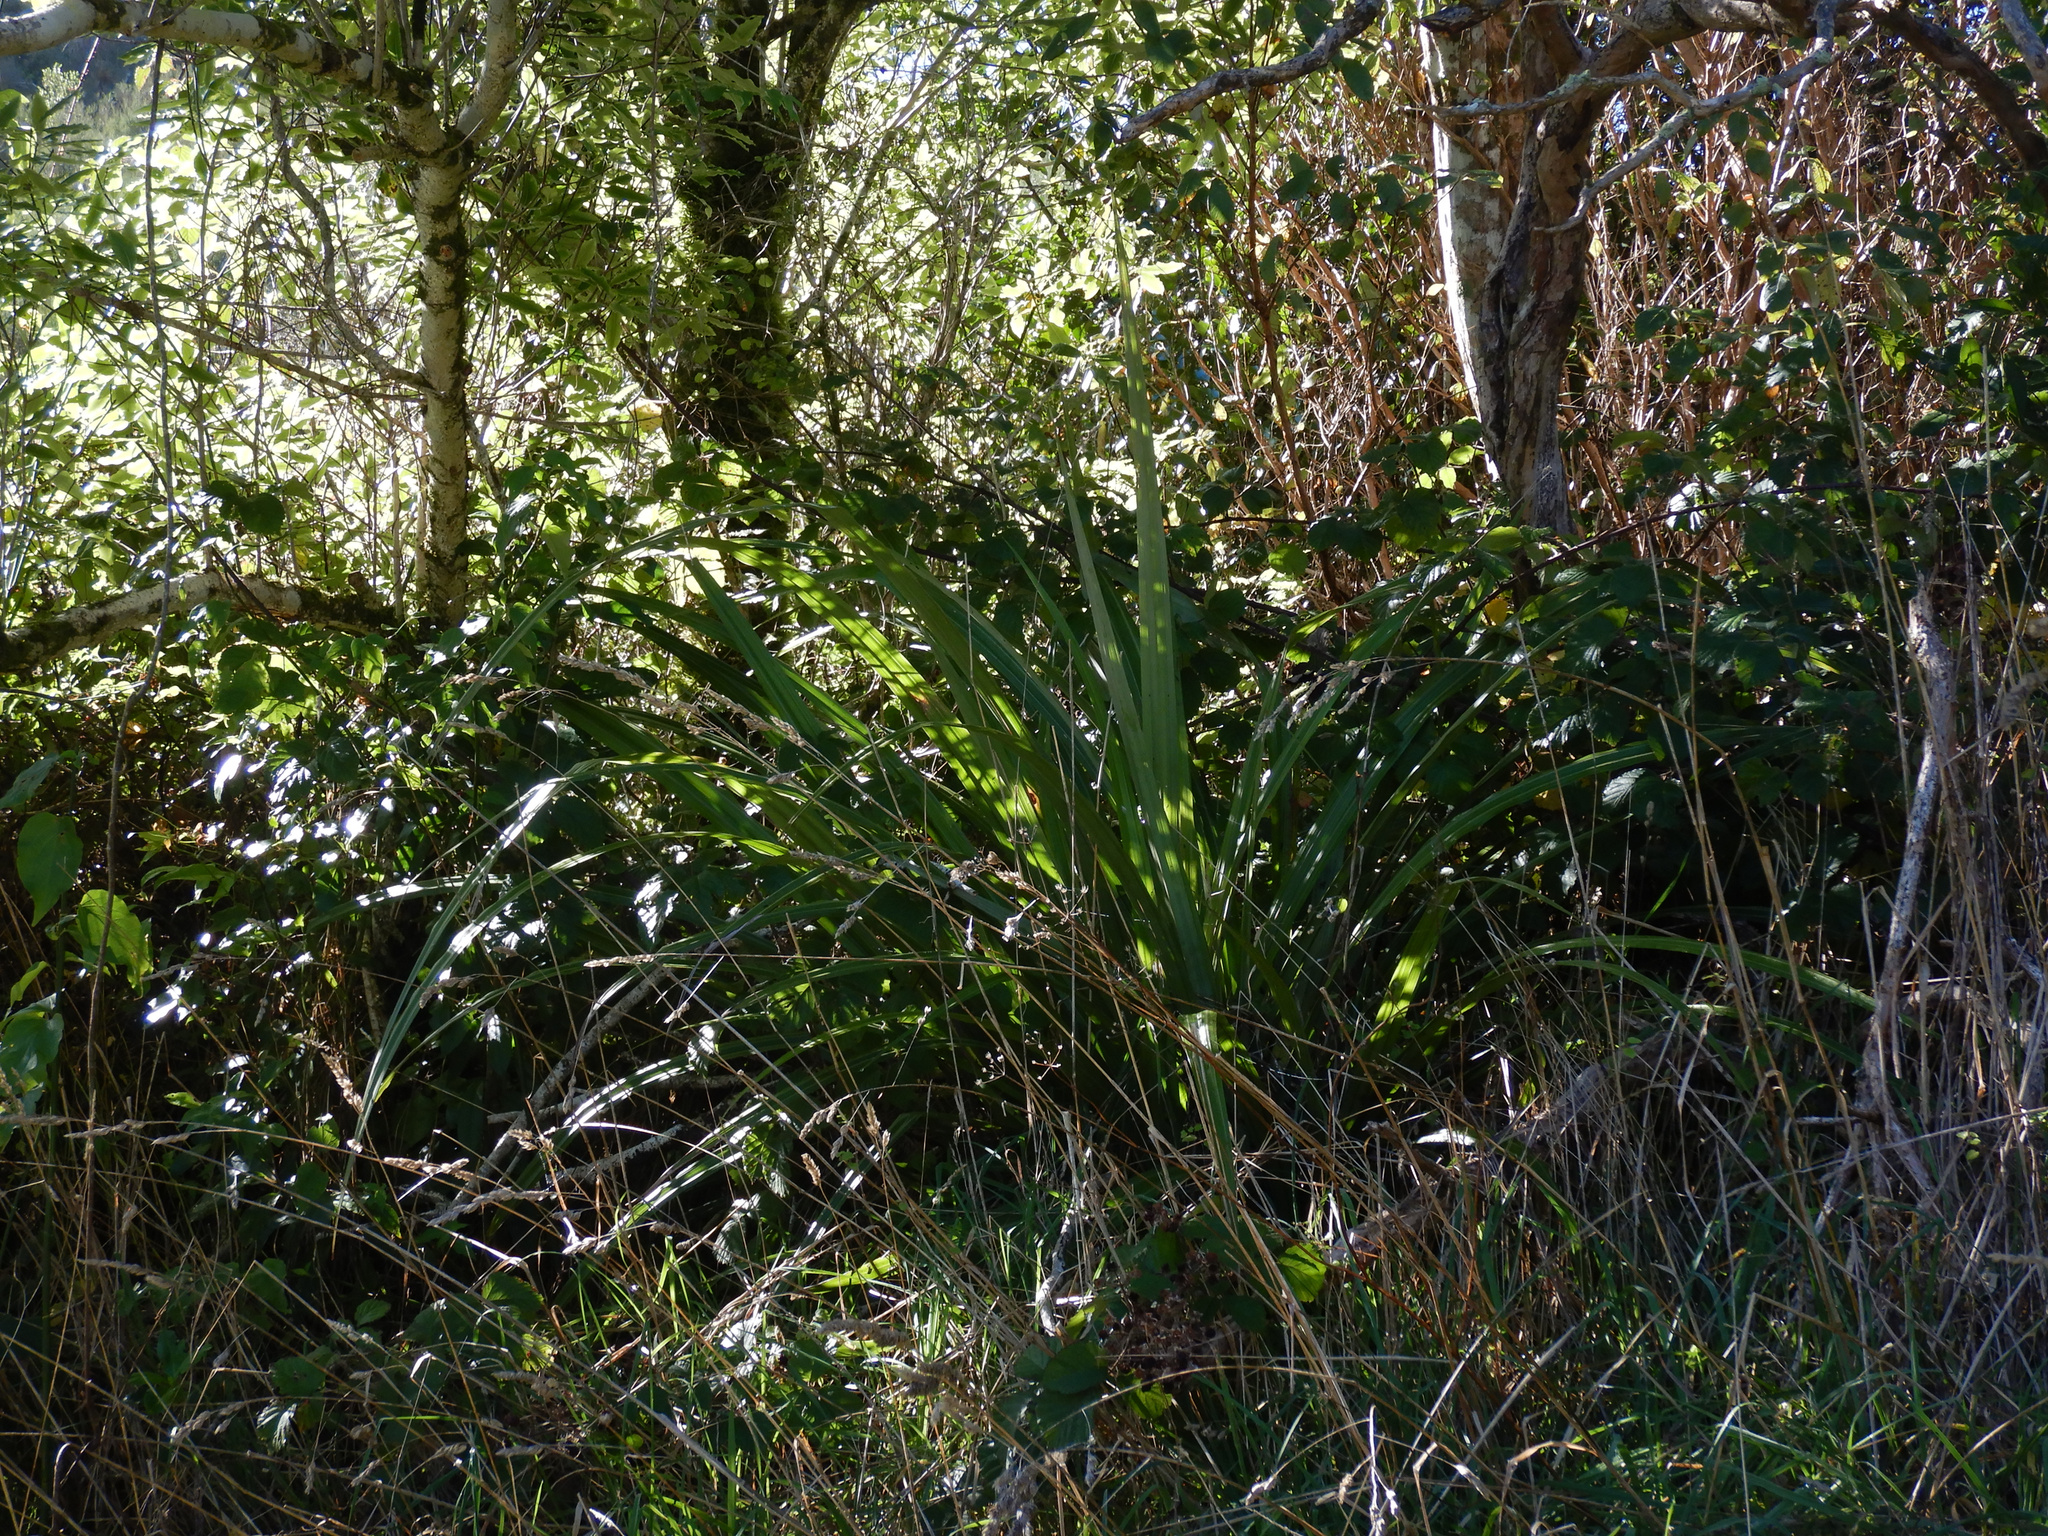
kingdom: Plantae
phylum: Tracheophyta
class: Liliopsida
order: Asparagales
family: Asteliaceae
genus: Astelia
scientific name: Astelia fragrans
